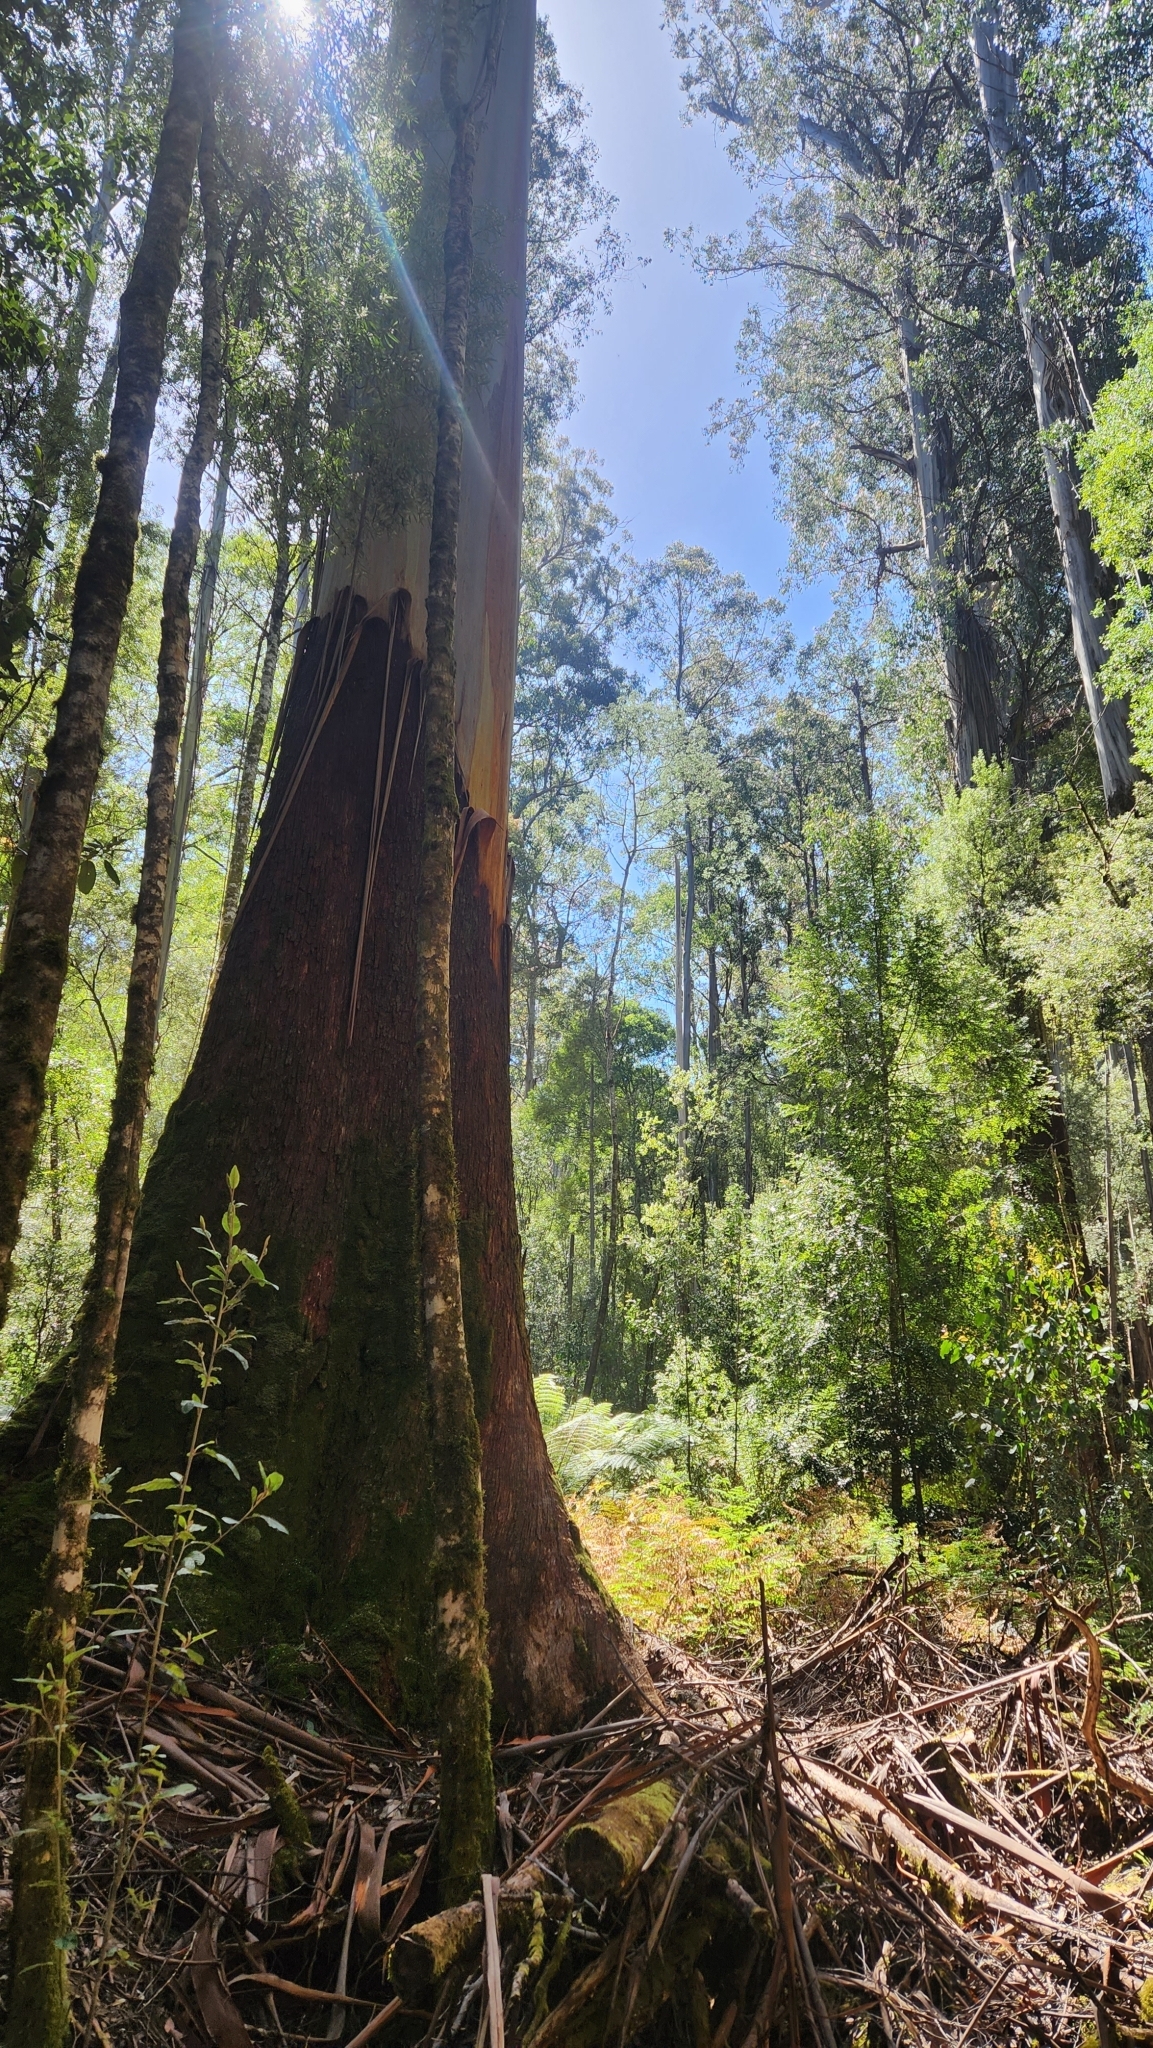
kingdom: Plantae
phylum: Tracheophyta
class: Magnoliopsida
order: Myrtales
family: Myrtaceae
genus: Eucalyptus
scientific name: Eucalyptus regnans
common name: Stringy gum
